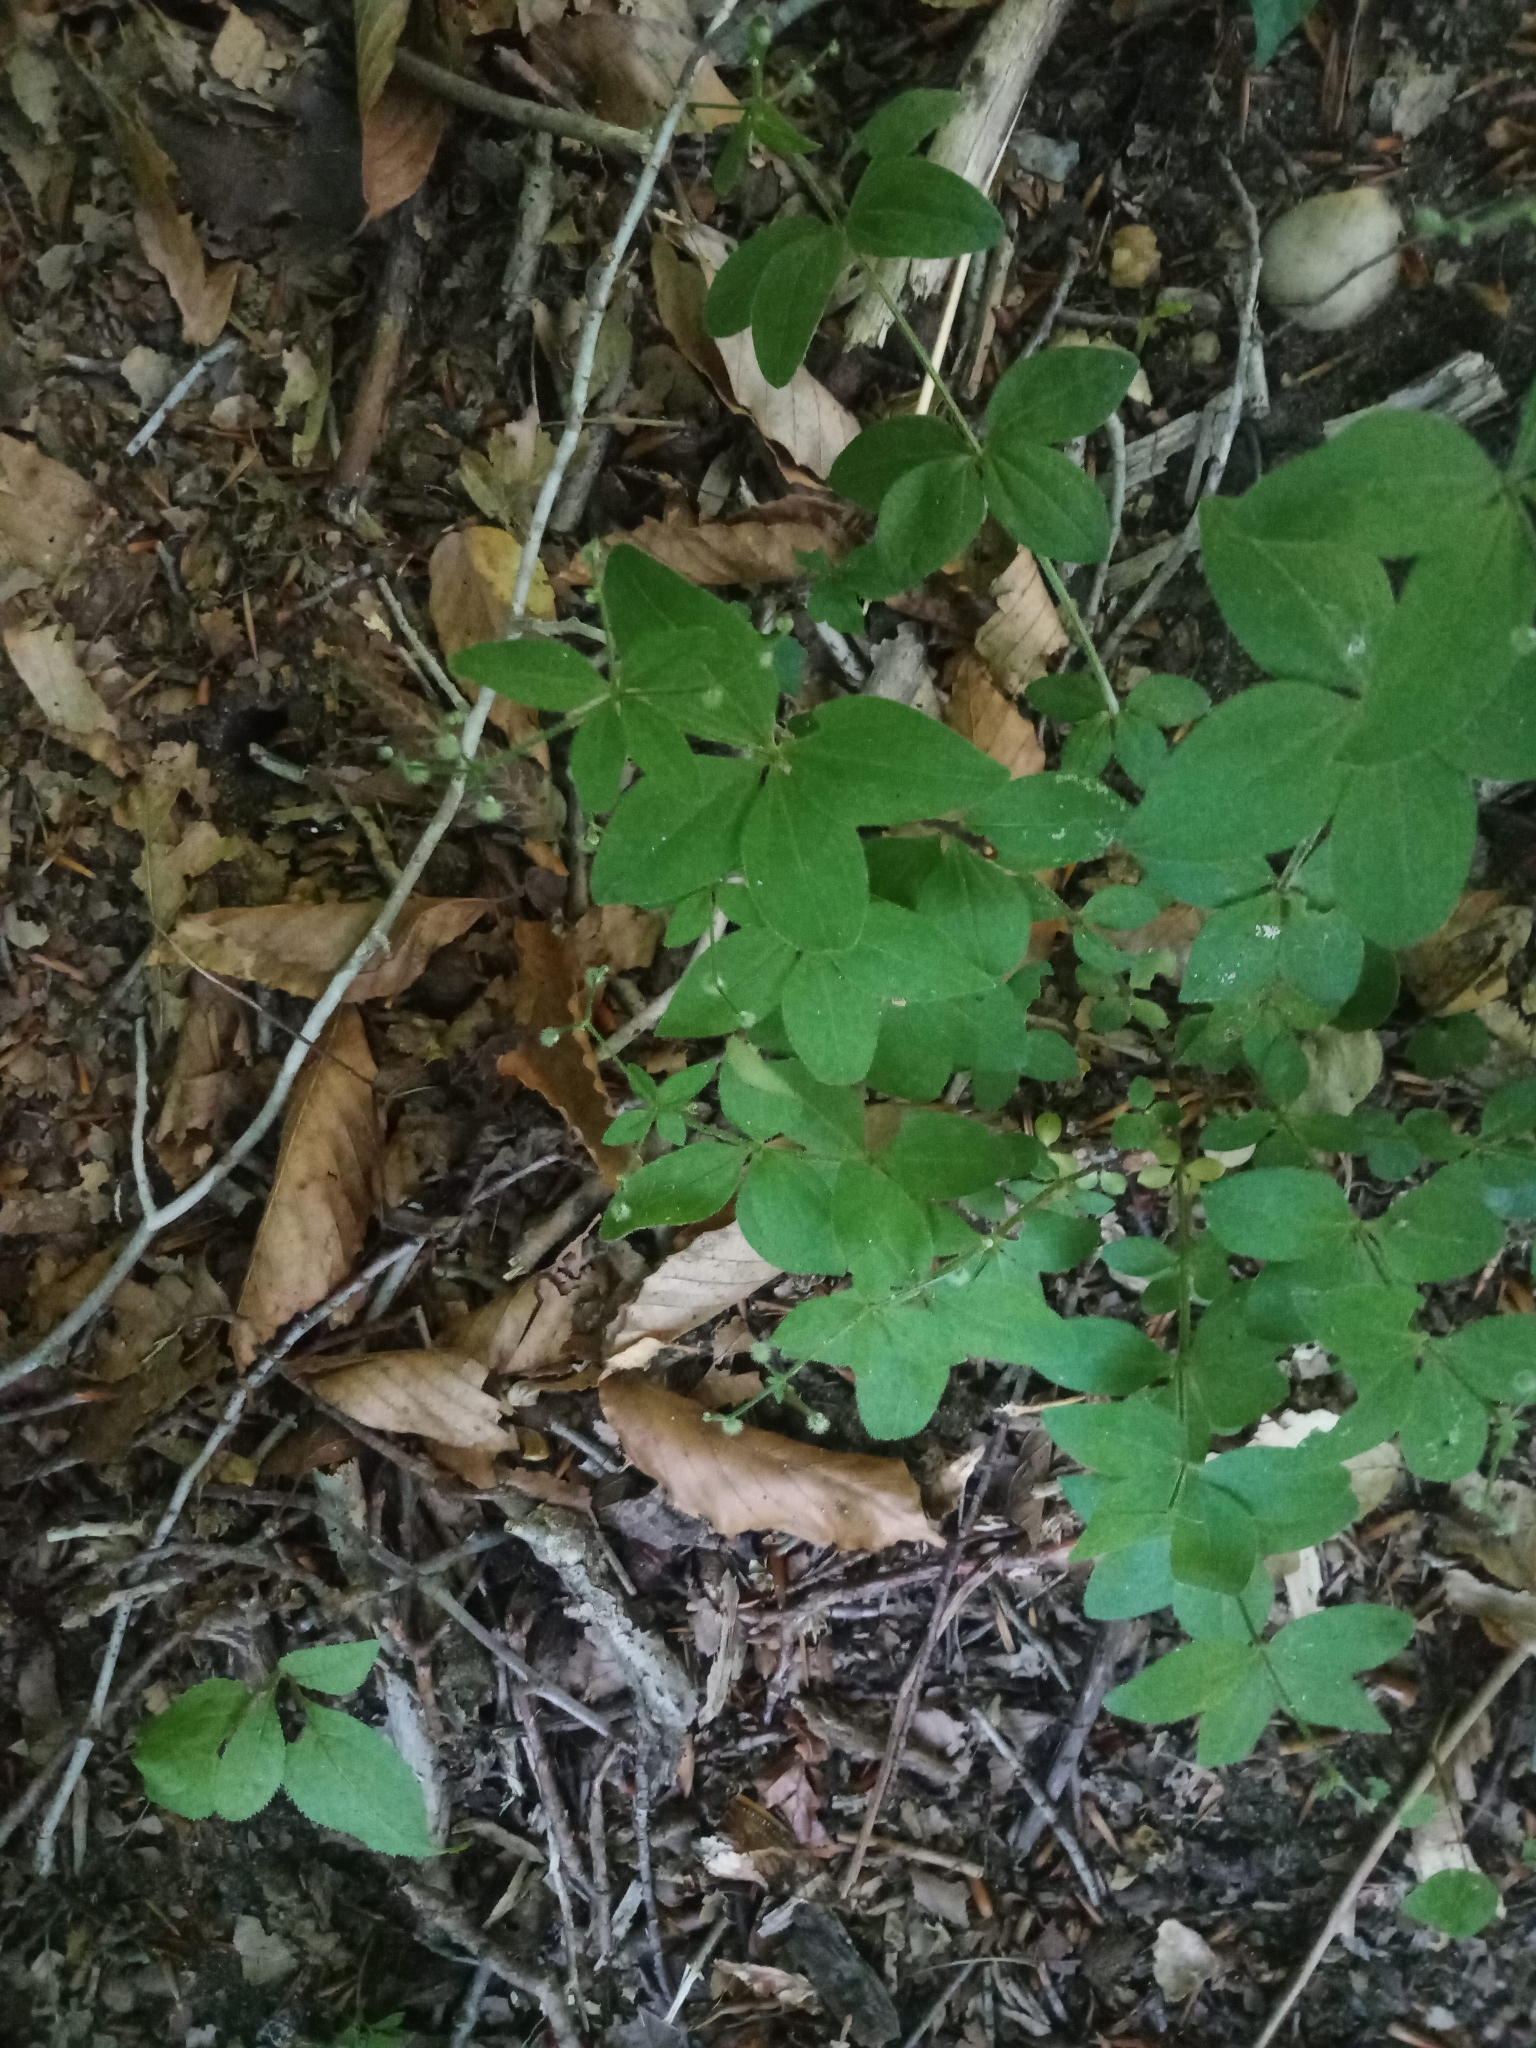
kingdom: Plantae
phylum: Tracheophyta
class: Magnoliopsida
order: Gentianales
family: Rubiaceae
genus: Galium
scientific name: Galium circaezans
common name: Forest bedstraw
